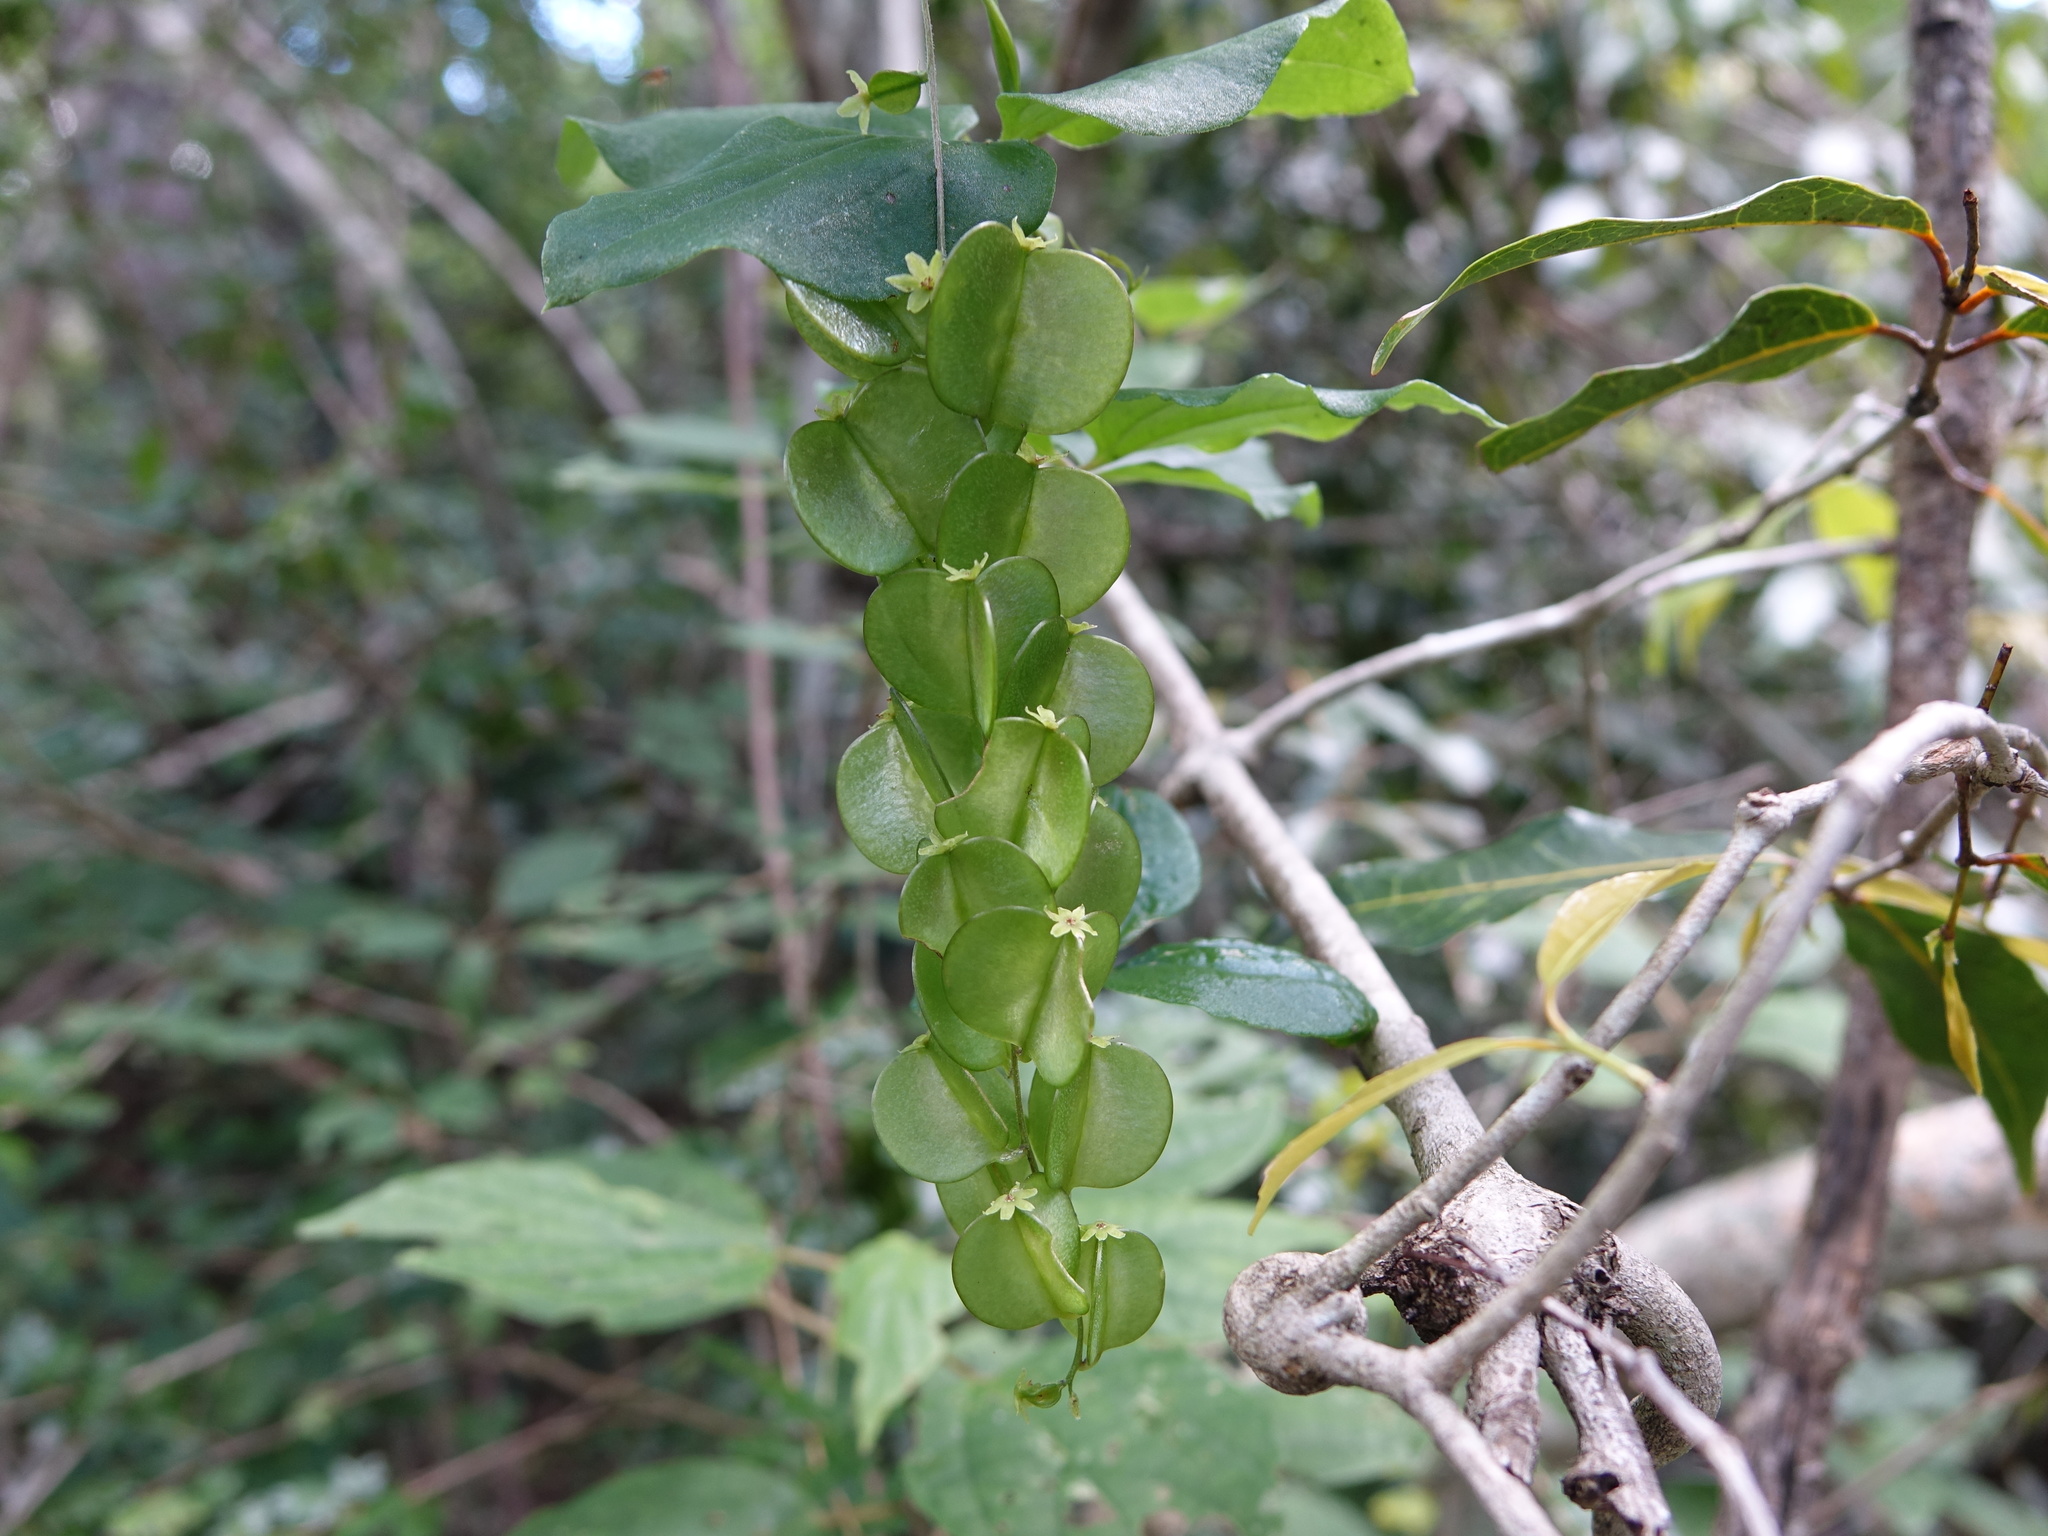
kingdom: Plantae
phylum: Tracheophyta
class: Liliopsida
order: Dioscoreales
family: Dioscoreaceae
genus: Dioscorea
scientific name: Dioscorea bemarivensis
